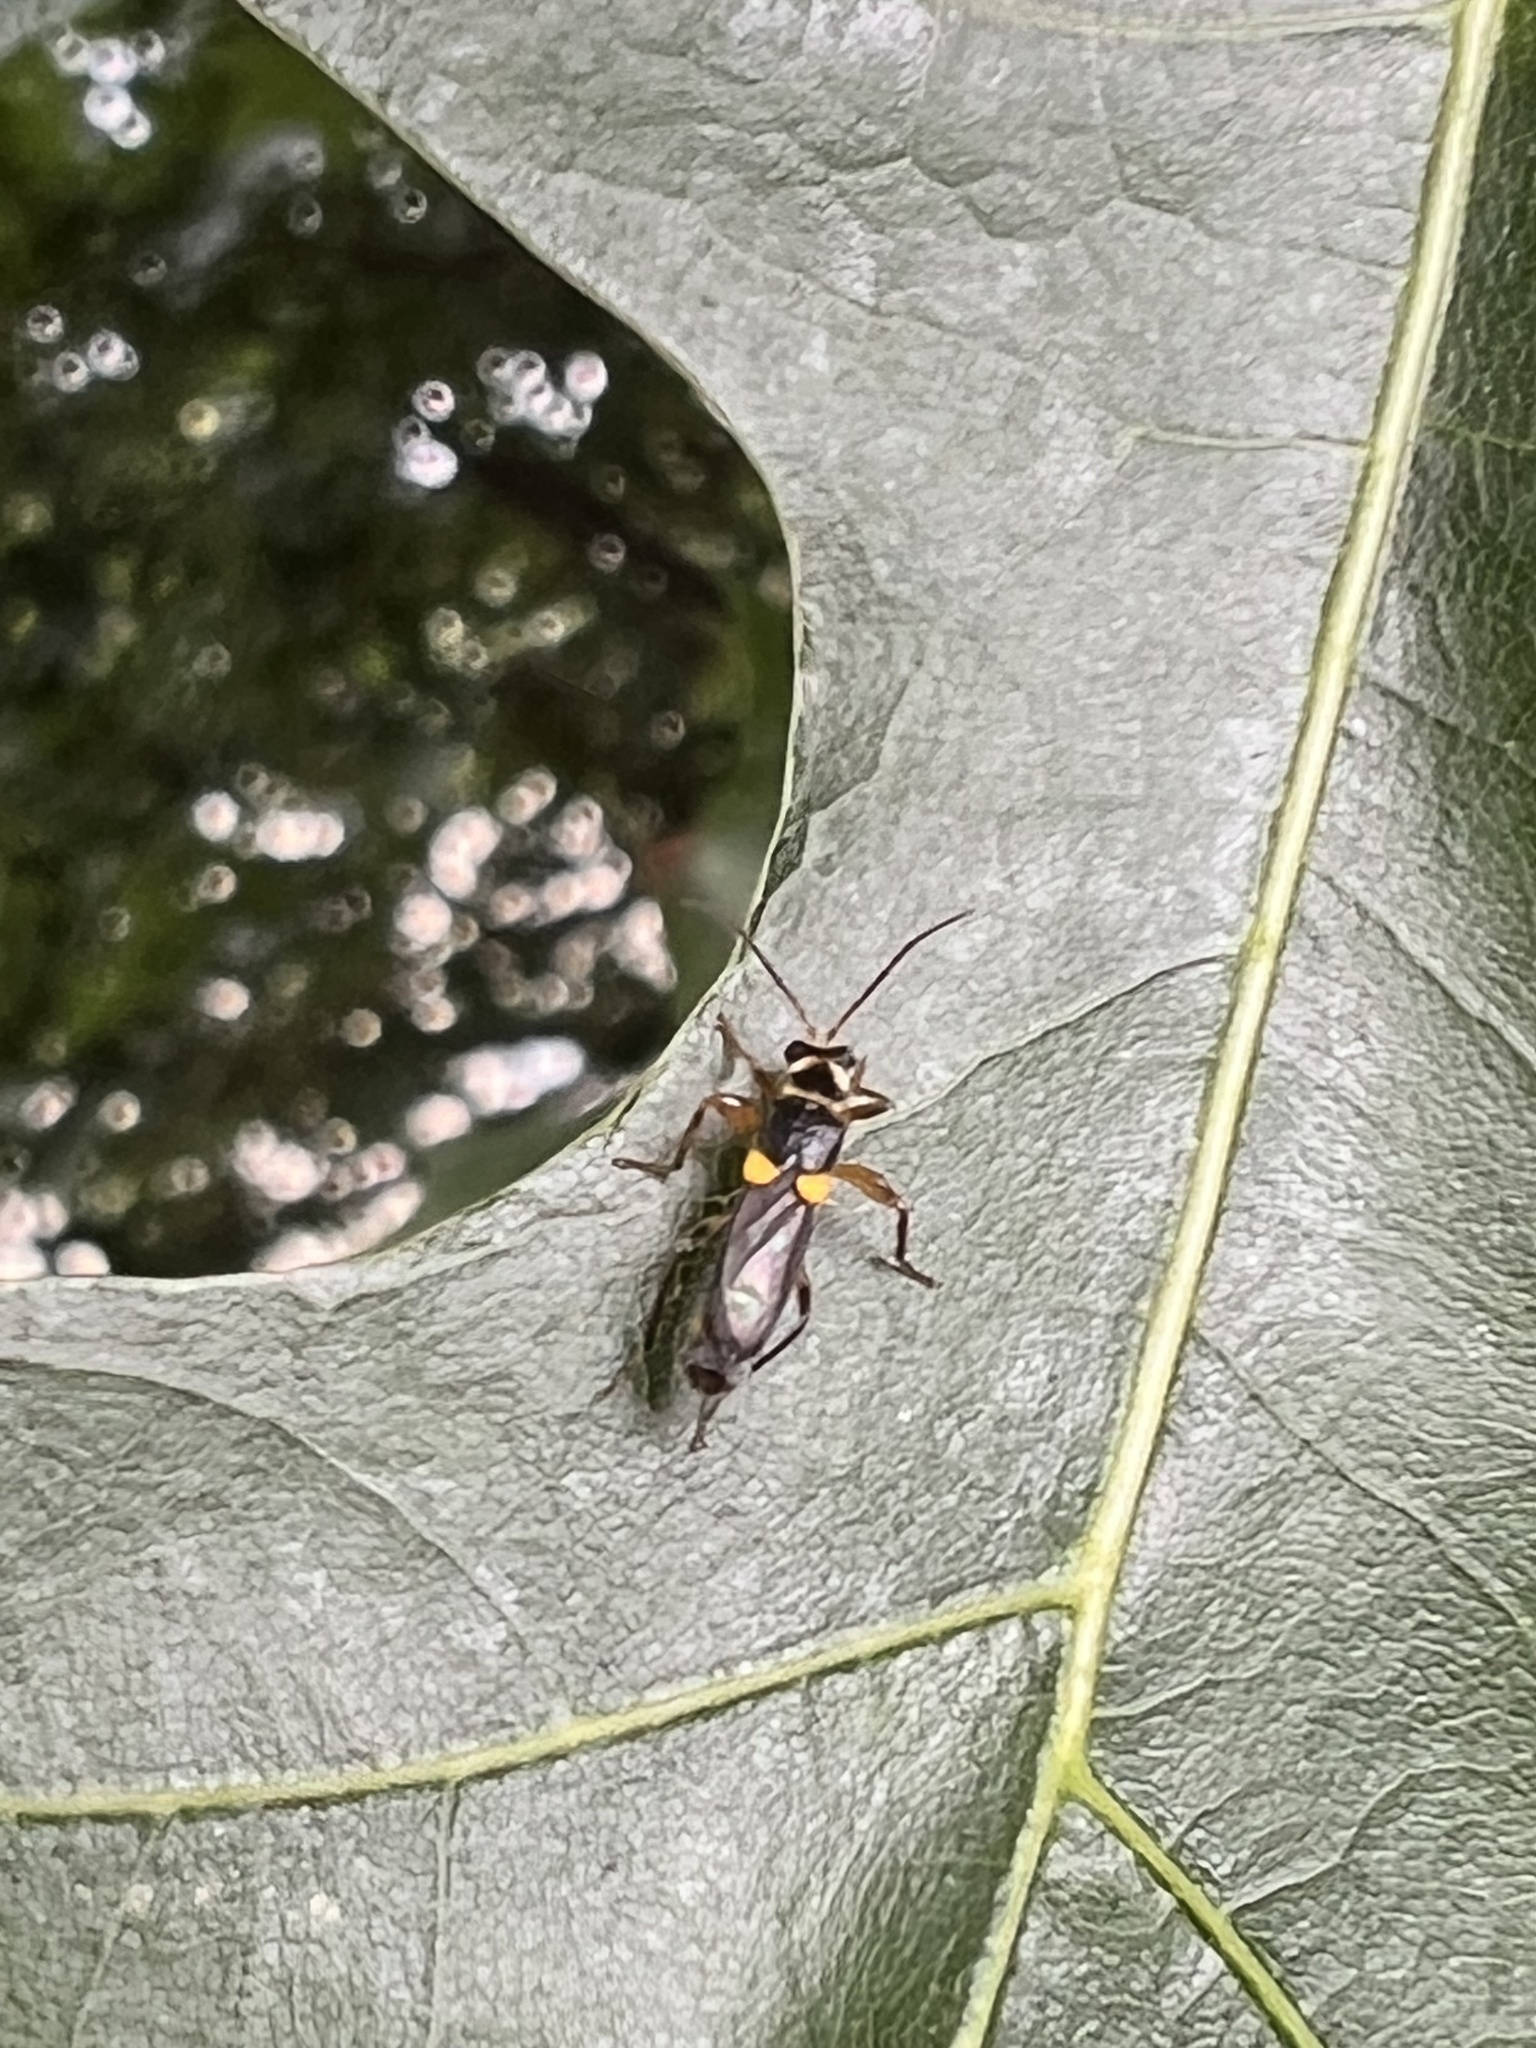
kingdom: Animalia
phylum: Arthropoda
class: Insecta
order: Coleoptera
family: Cantharidae
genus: Trypherus
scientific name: Trypherus frisoni
